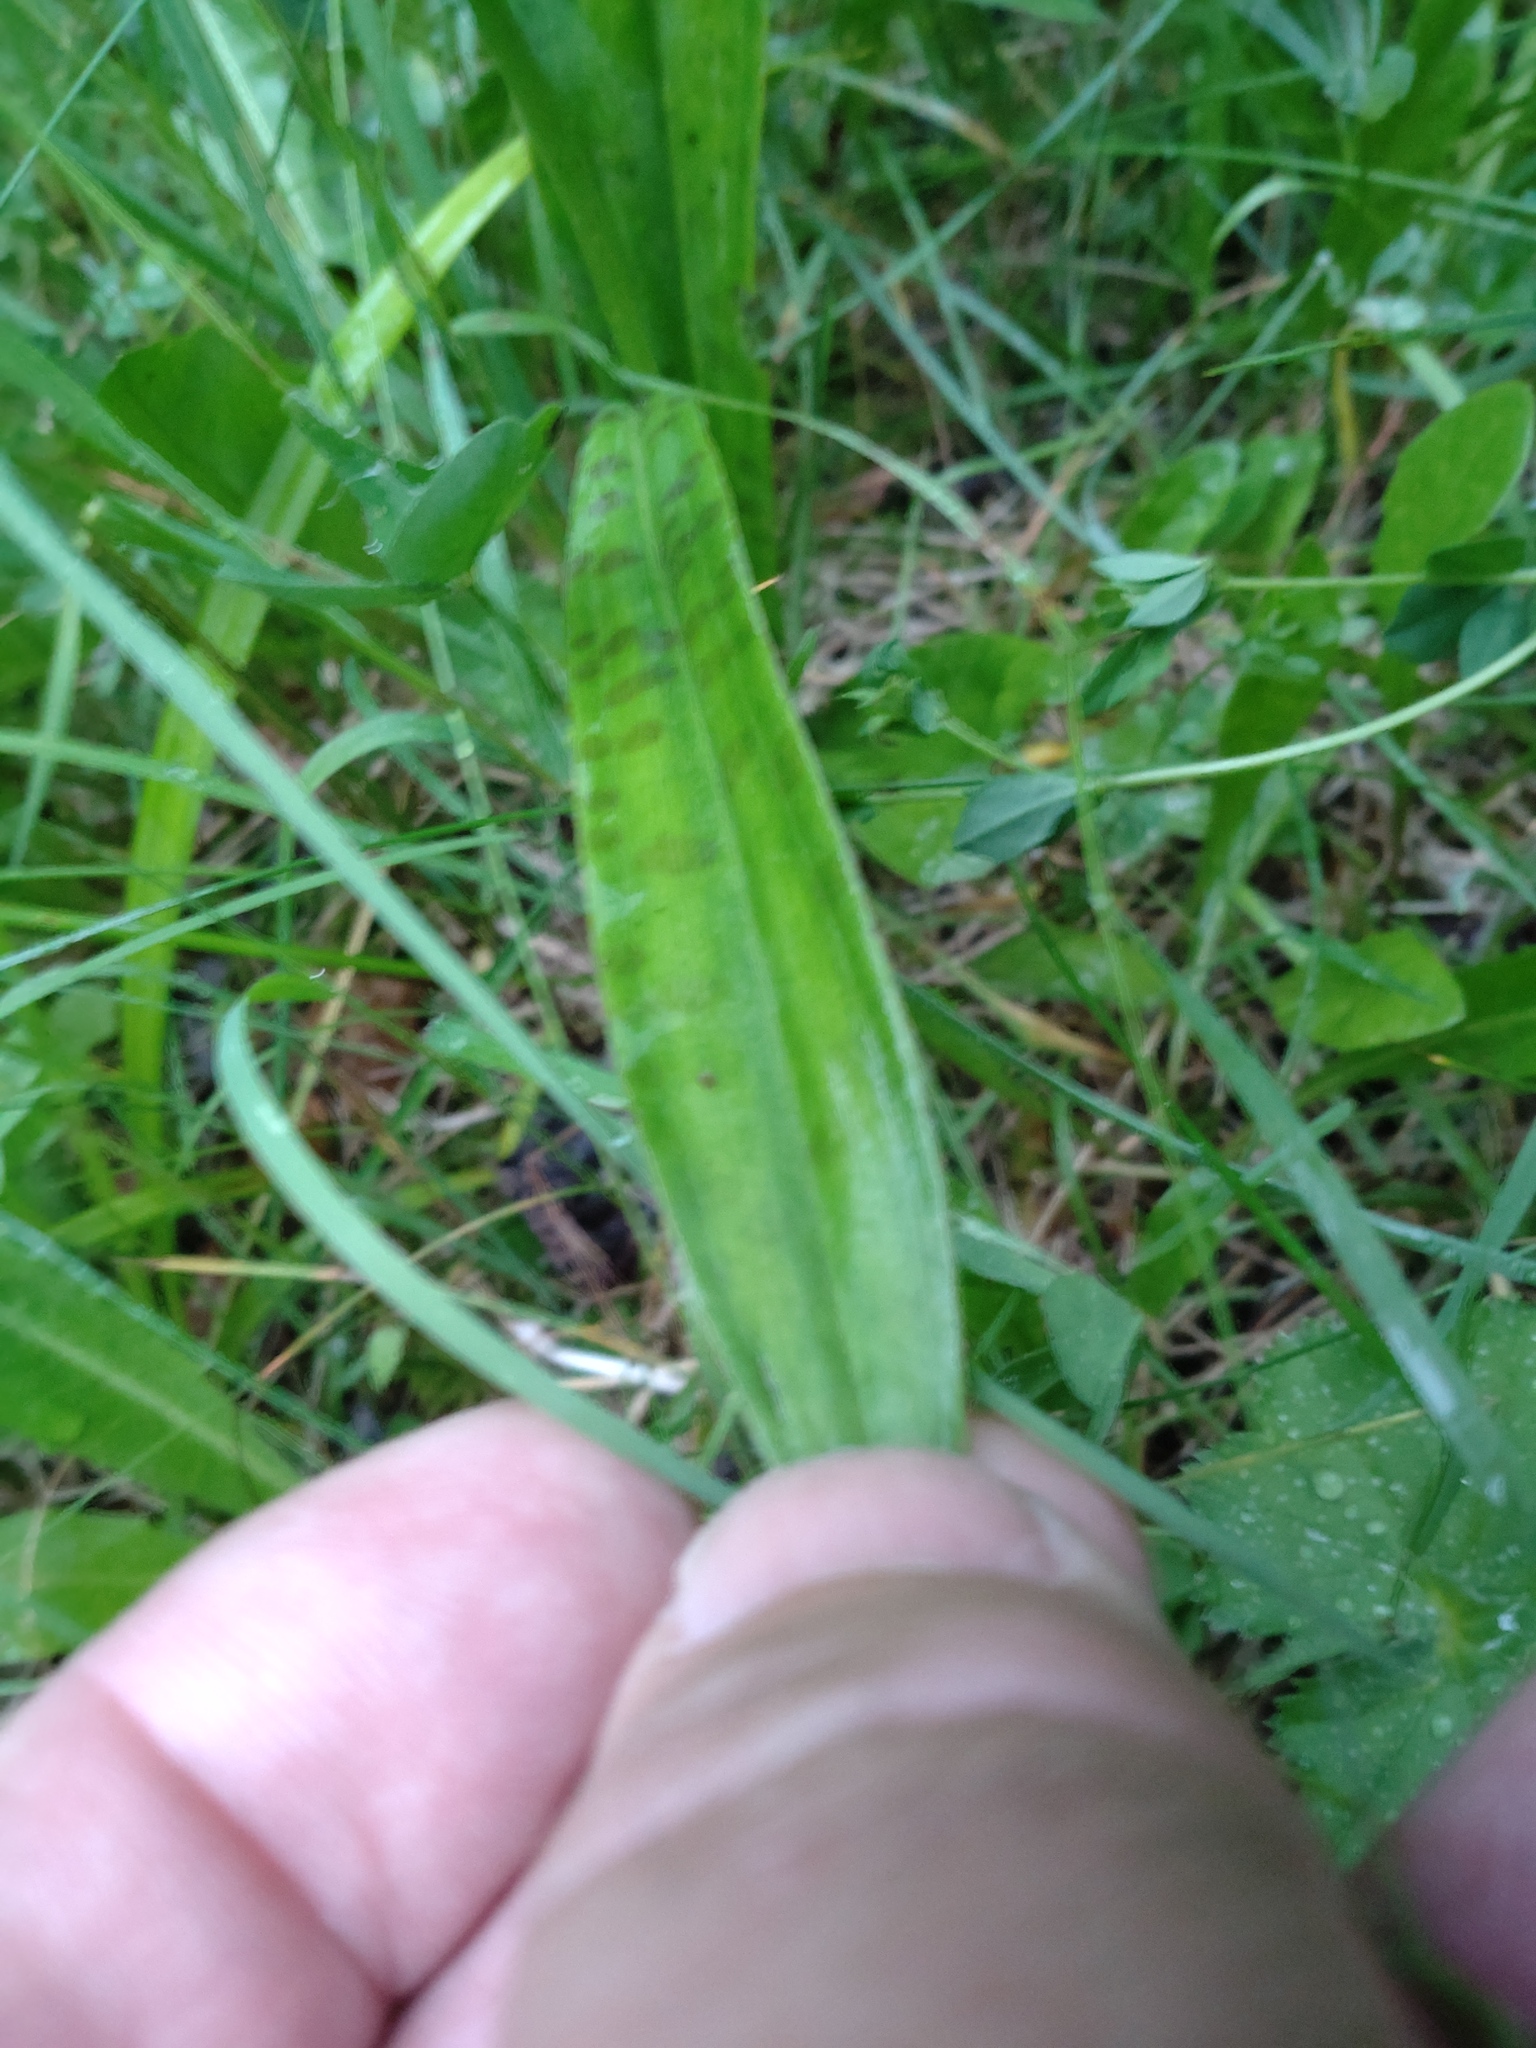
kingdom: Plantae
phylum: Tracheophyta
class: Liliopsida
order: Asparagales
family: Orchidaceae
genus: Dactylorhiza
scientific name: Dactylorhiza maculata
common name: Heath spotted-orchid
